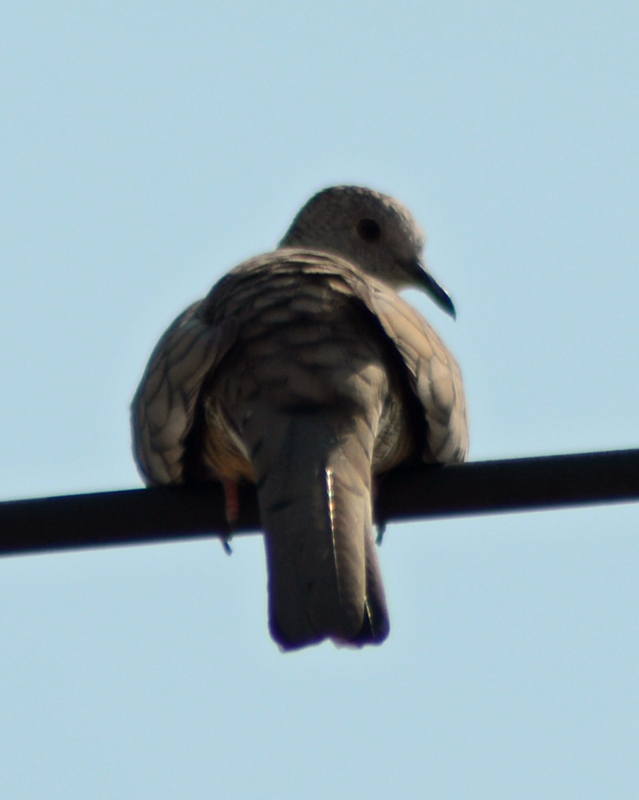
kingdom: Animalia
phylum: Chordata
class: Aves
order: Columbiformes
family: Columbidae
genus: Columbina
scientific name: Columbina inca
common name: Inca dove
